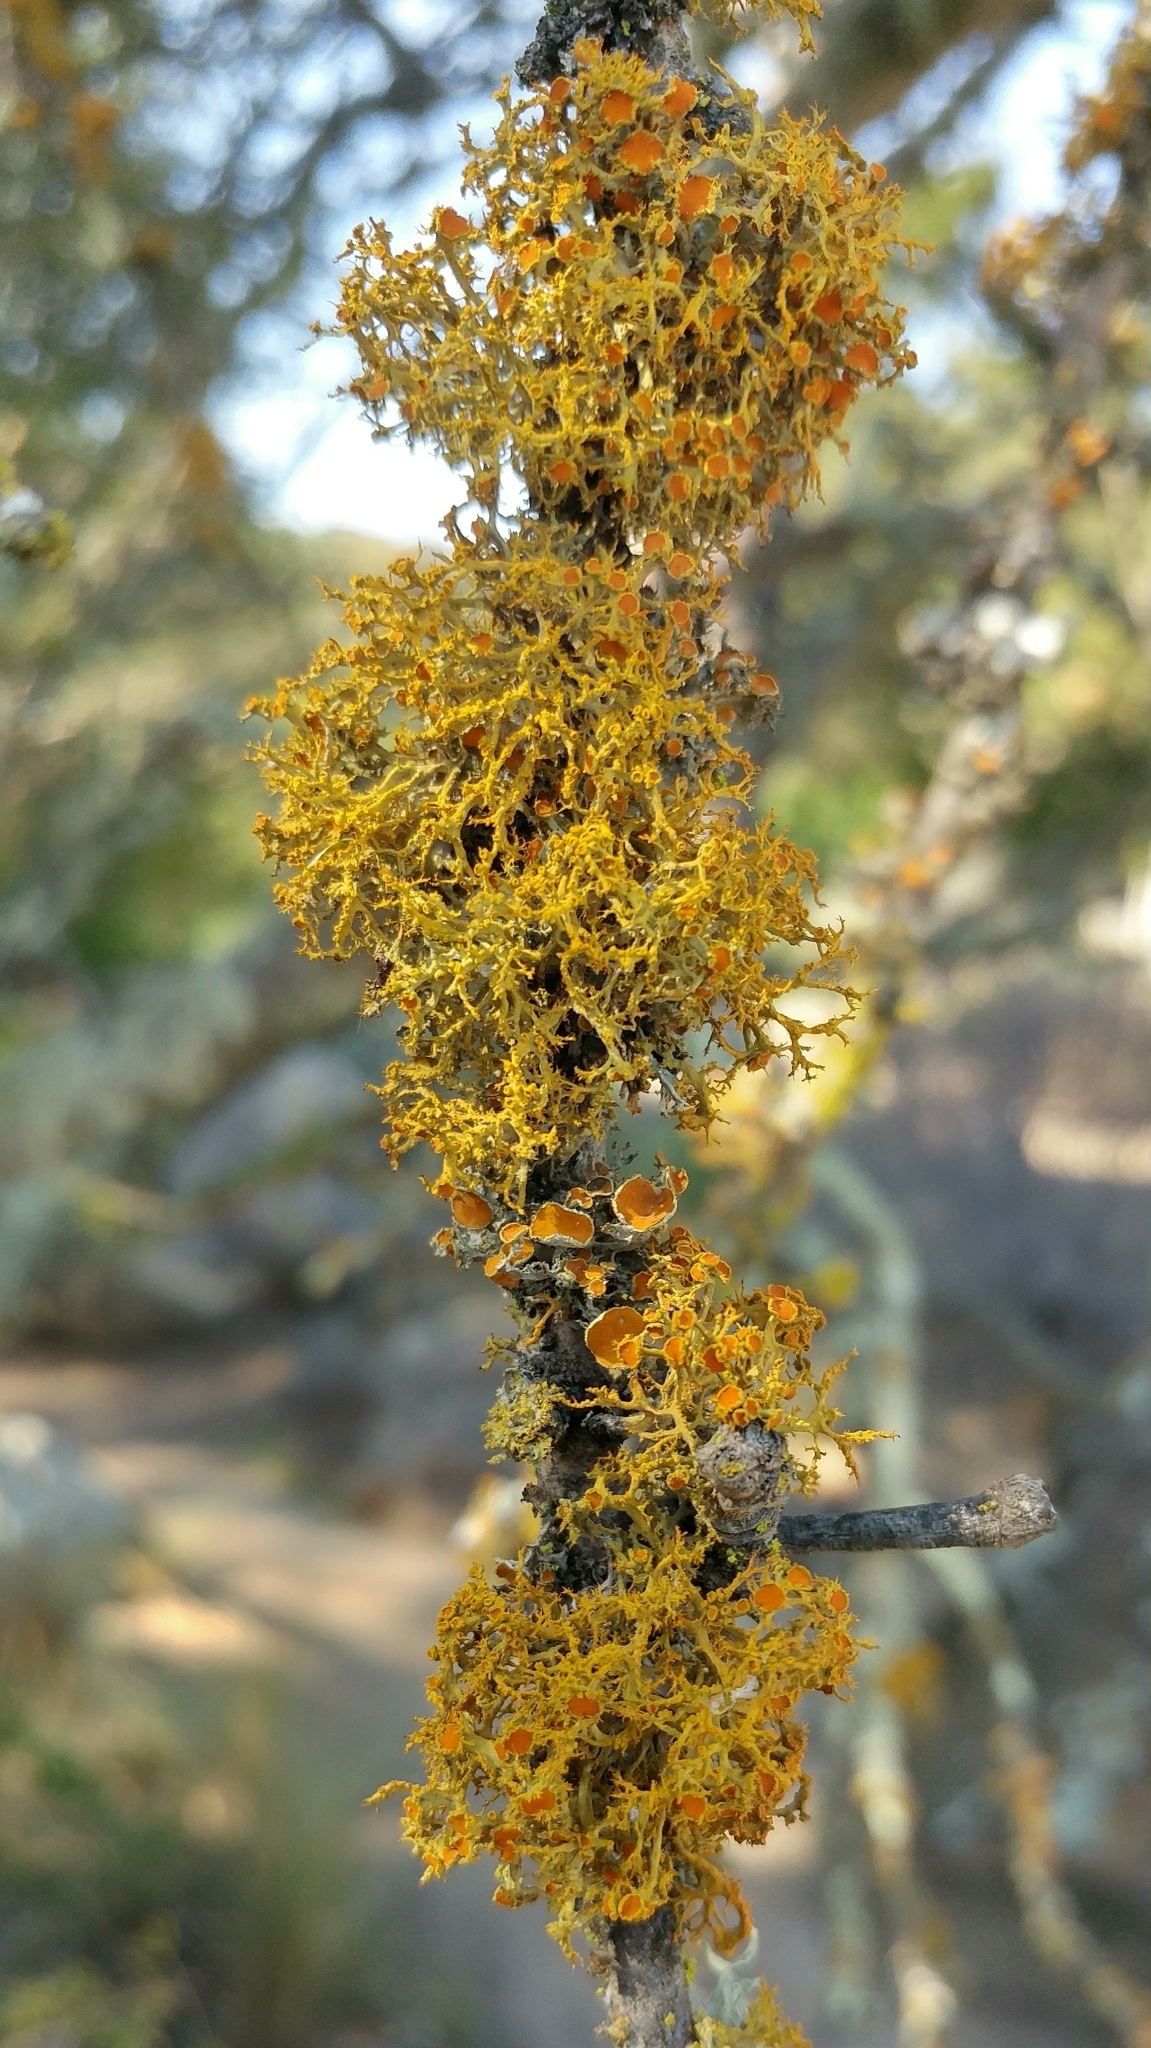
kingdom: Fungi
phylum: Ascomycota
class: Lecanoromycetes
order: Teloschistales
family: Teloschistaceae
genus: Niorma
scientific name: Niorma chrysophthalma
